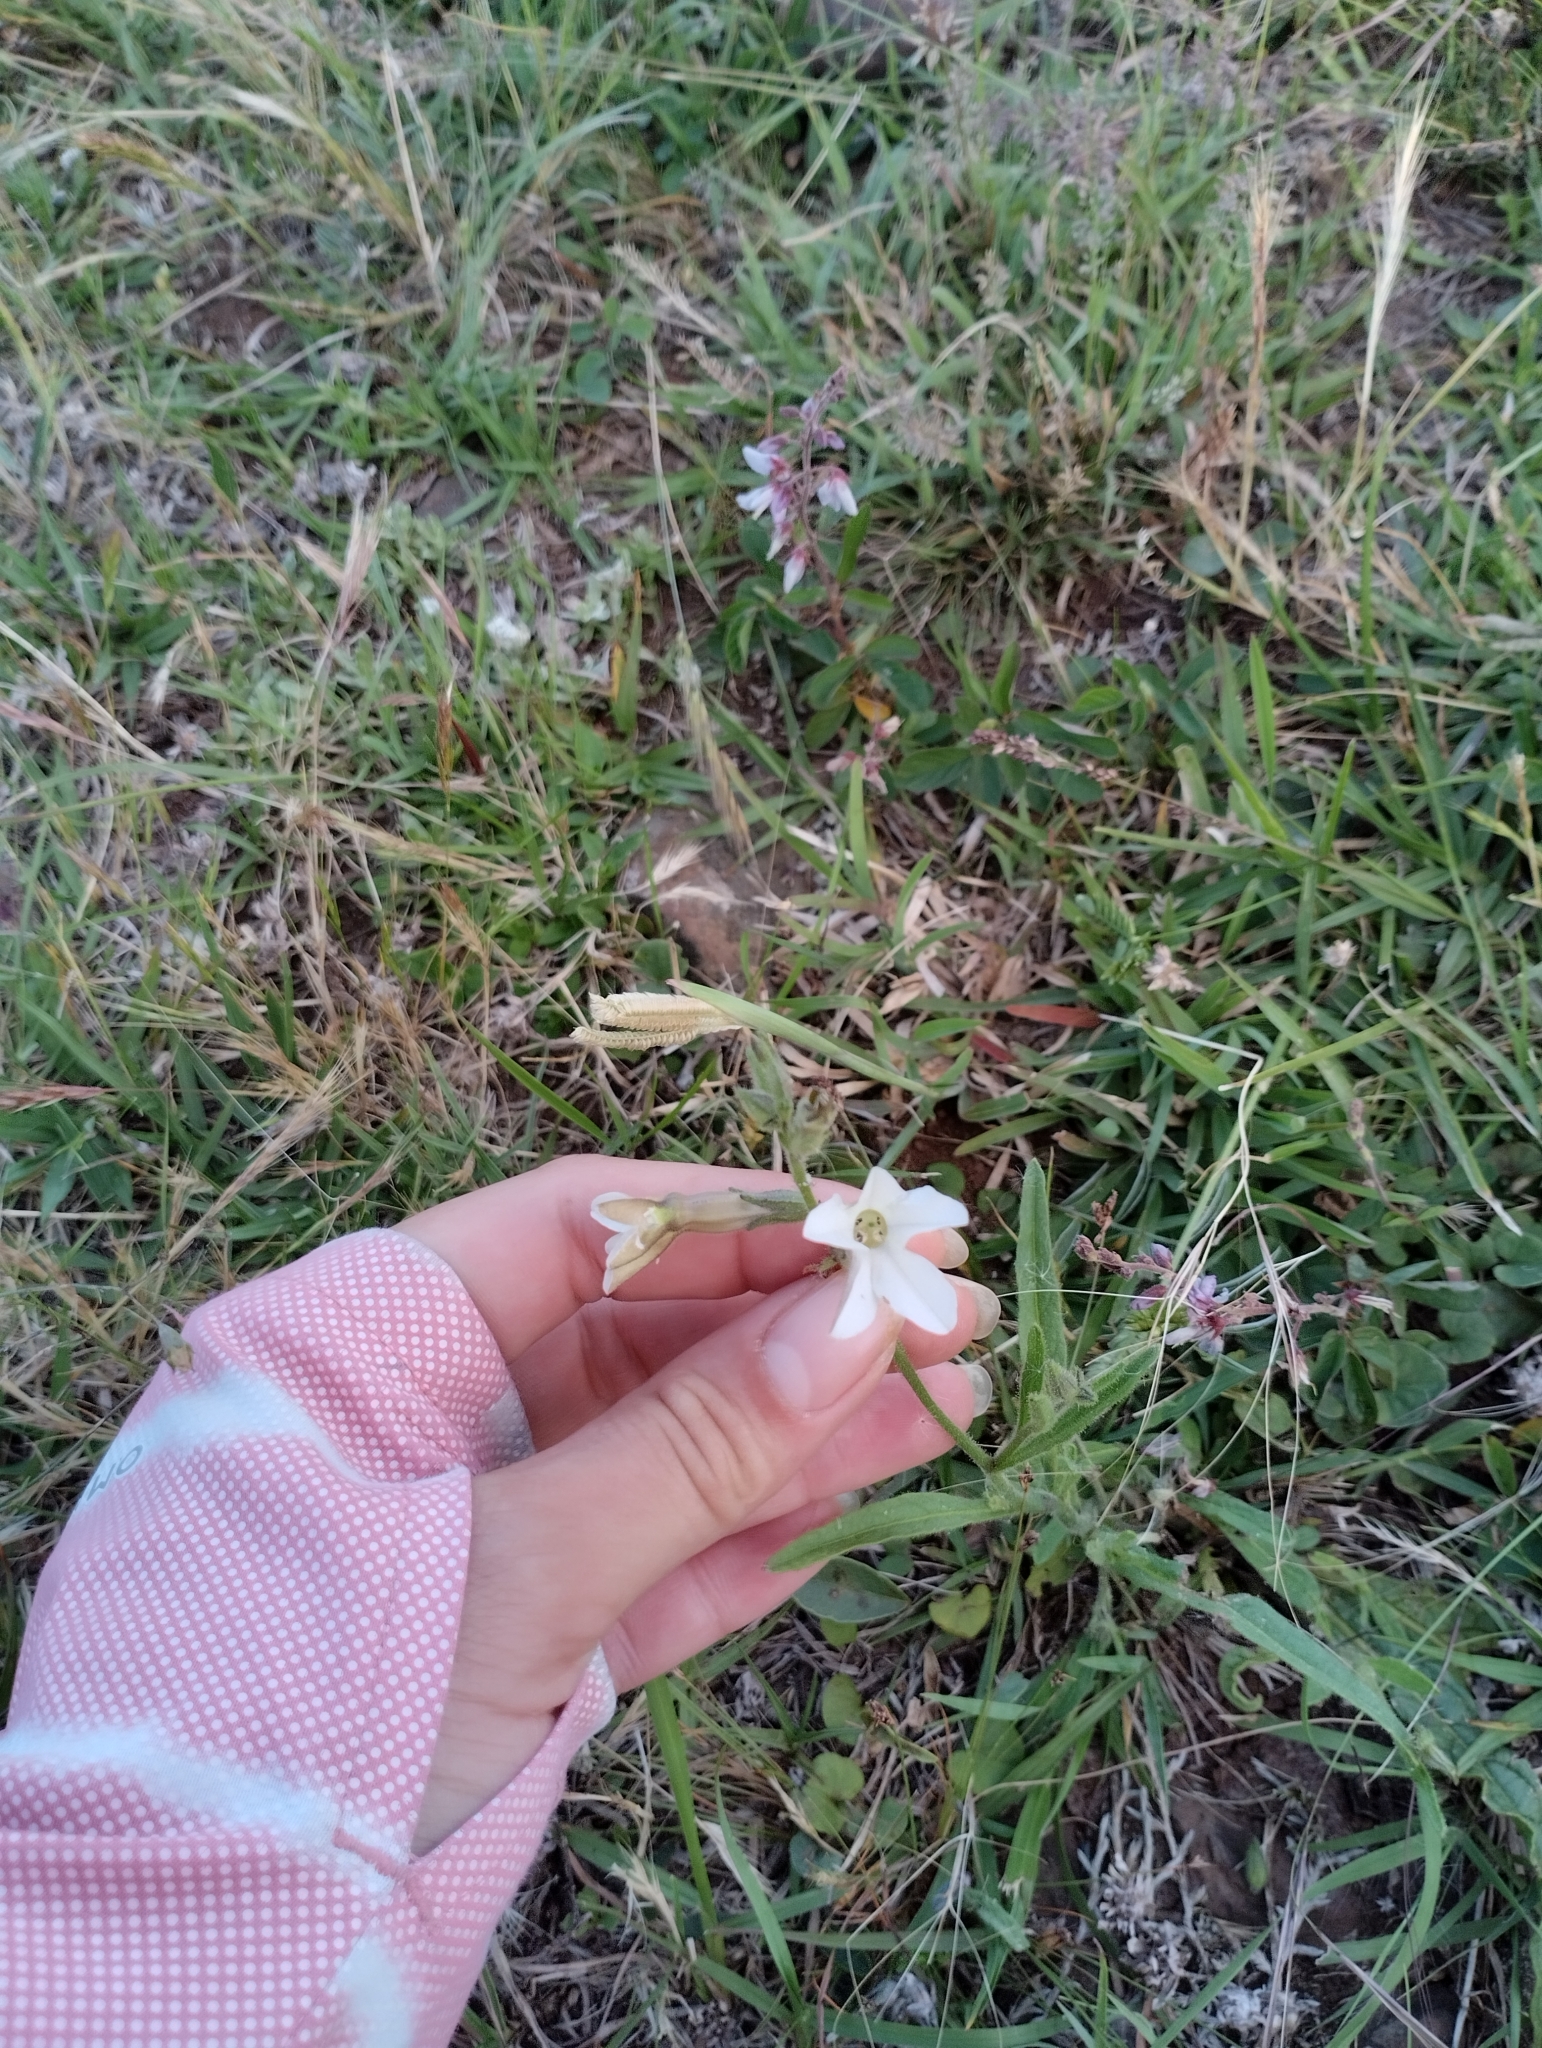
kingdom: Plantae
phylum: Tracheophyta
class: Magnoliopsida
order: Solanales
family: Solanaceae
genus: Nicotiana
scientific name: Nicotiana bonariensis
